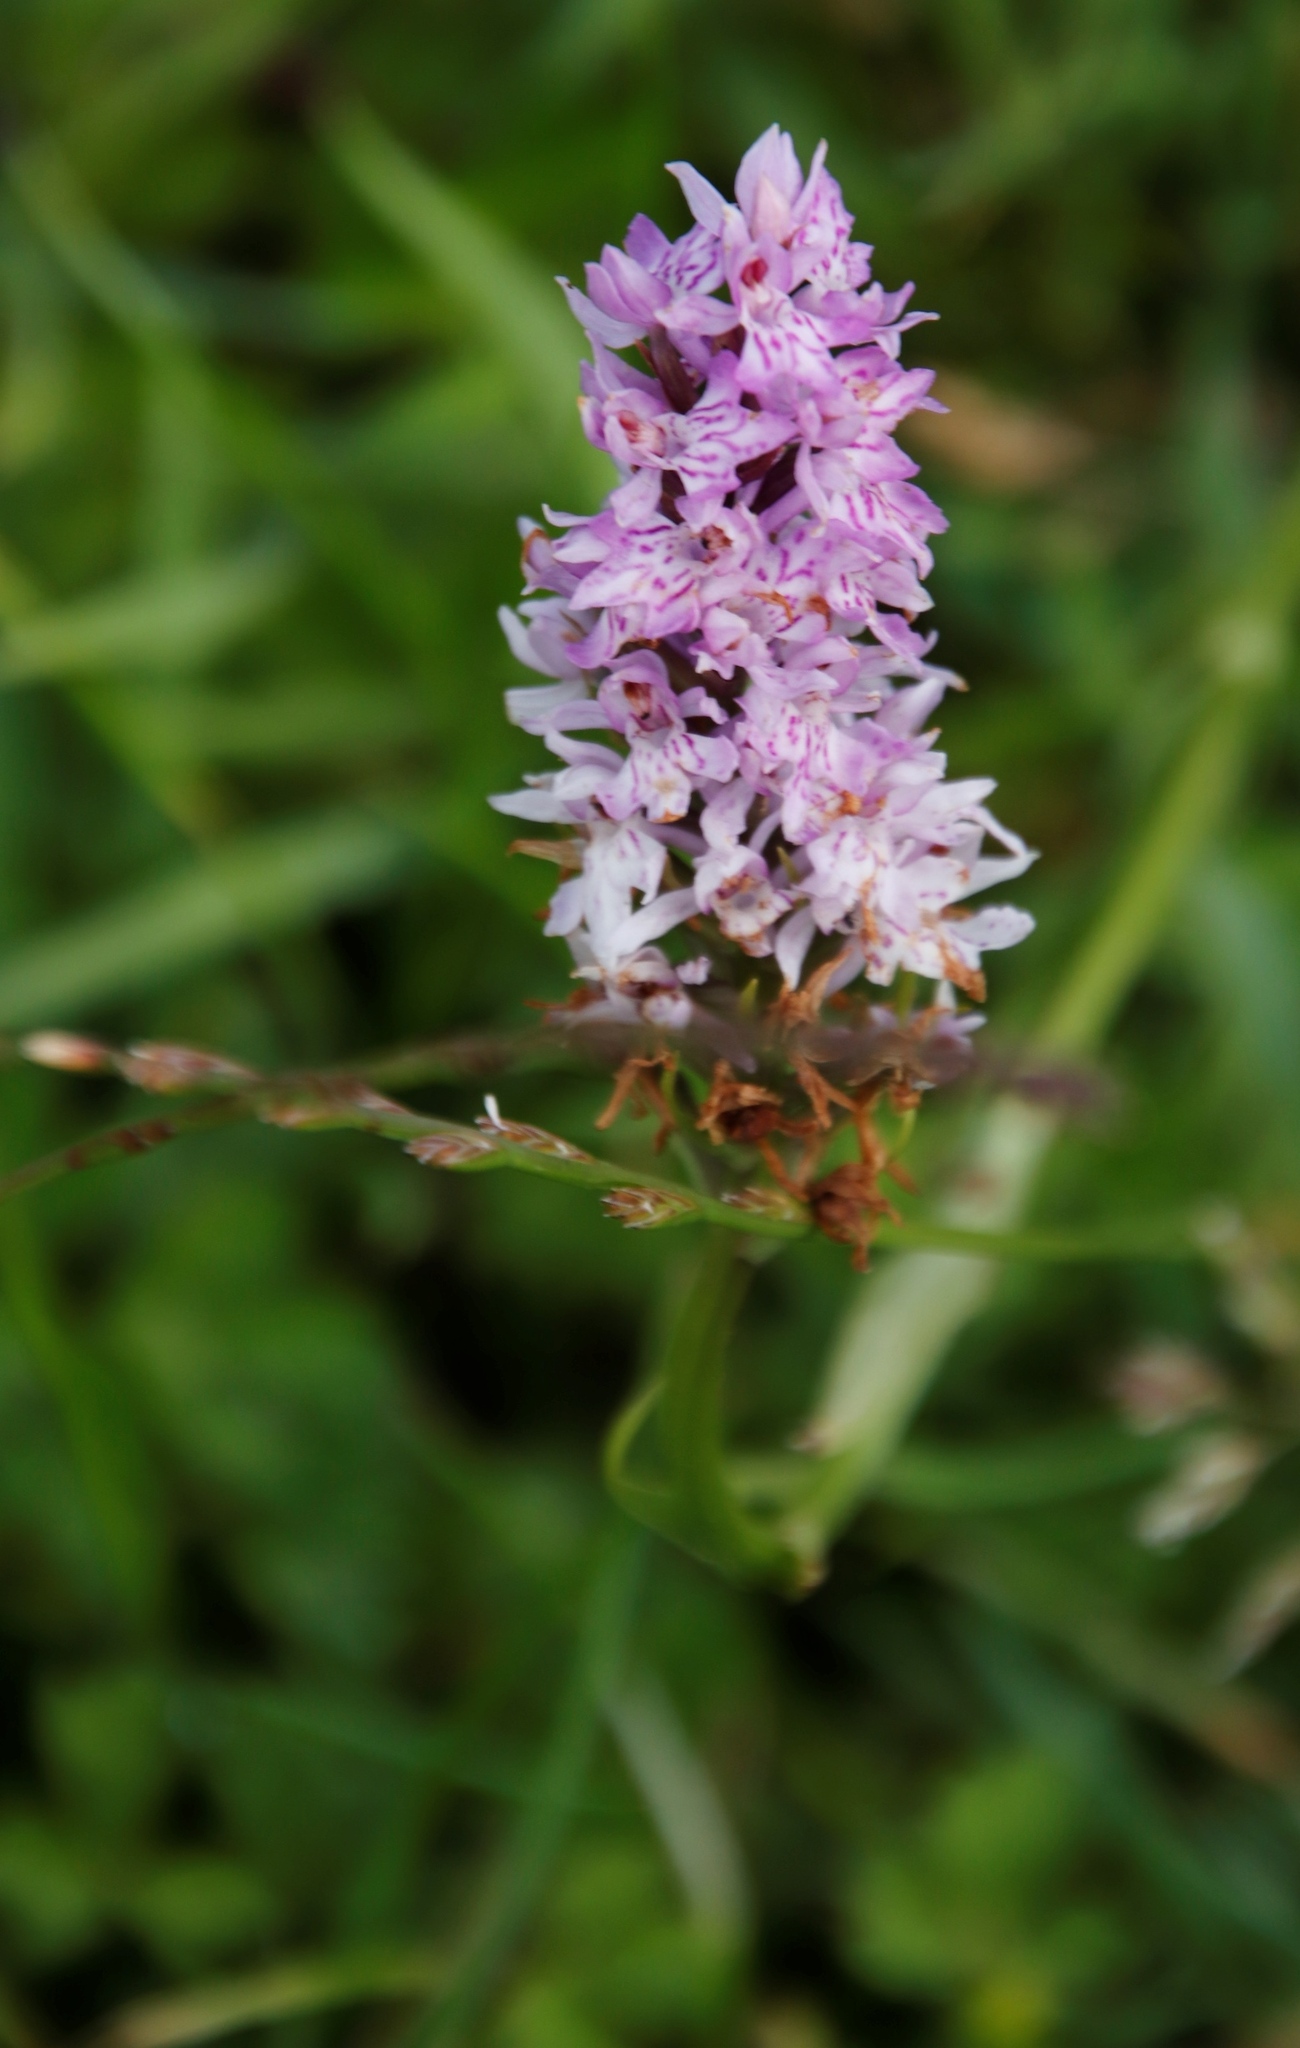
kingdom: Plantae
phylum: Tracheophyta
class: Liliopsida
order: Asparagales
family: Orchidaceae
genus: Dactylorhiza
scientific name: Dactylorhiza maculata
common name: Heath spotted-orchid
